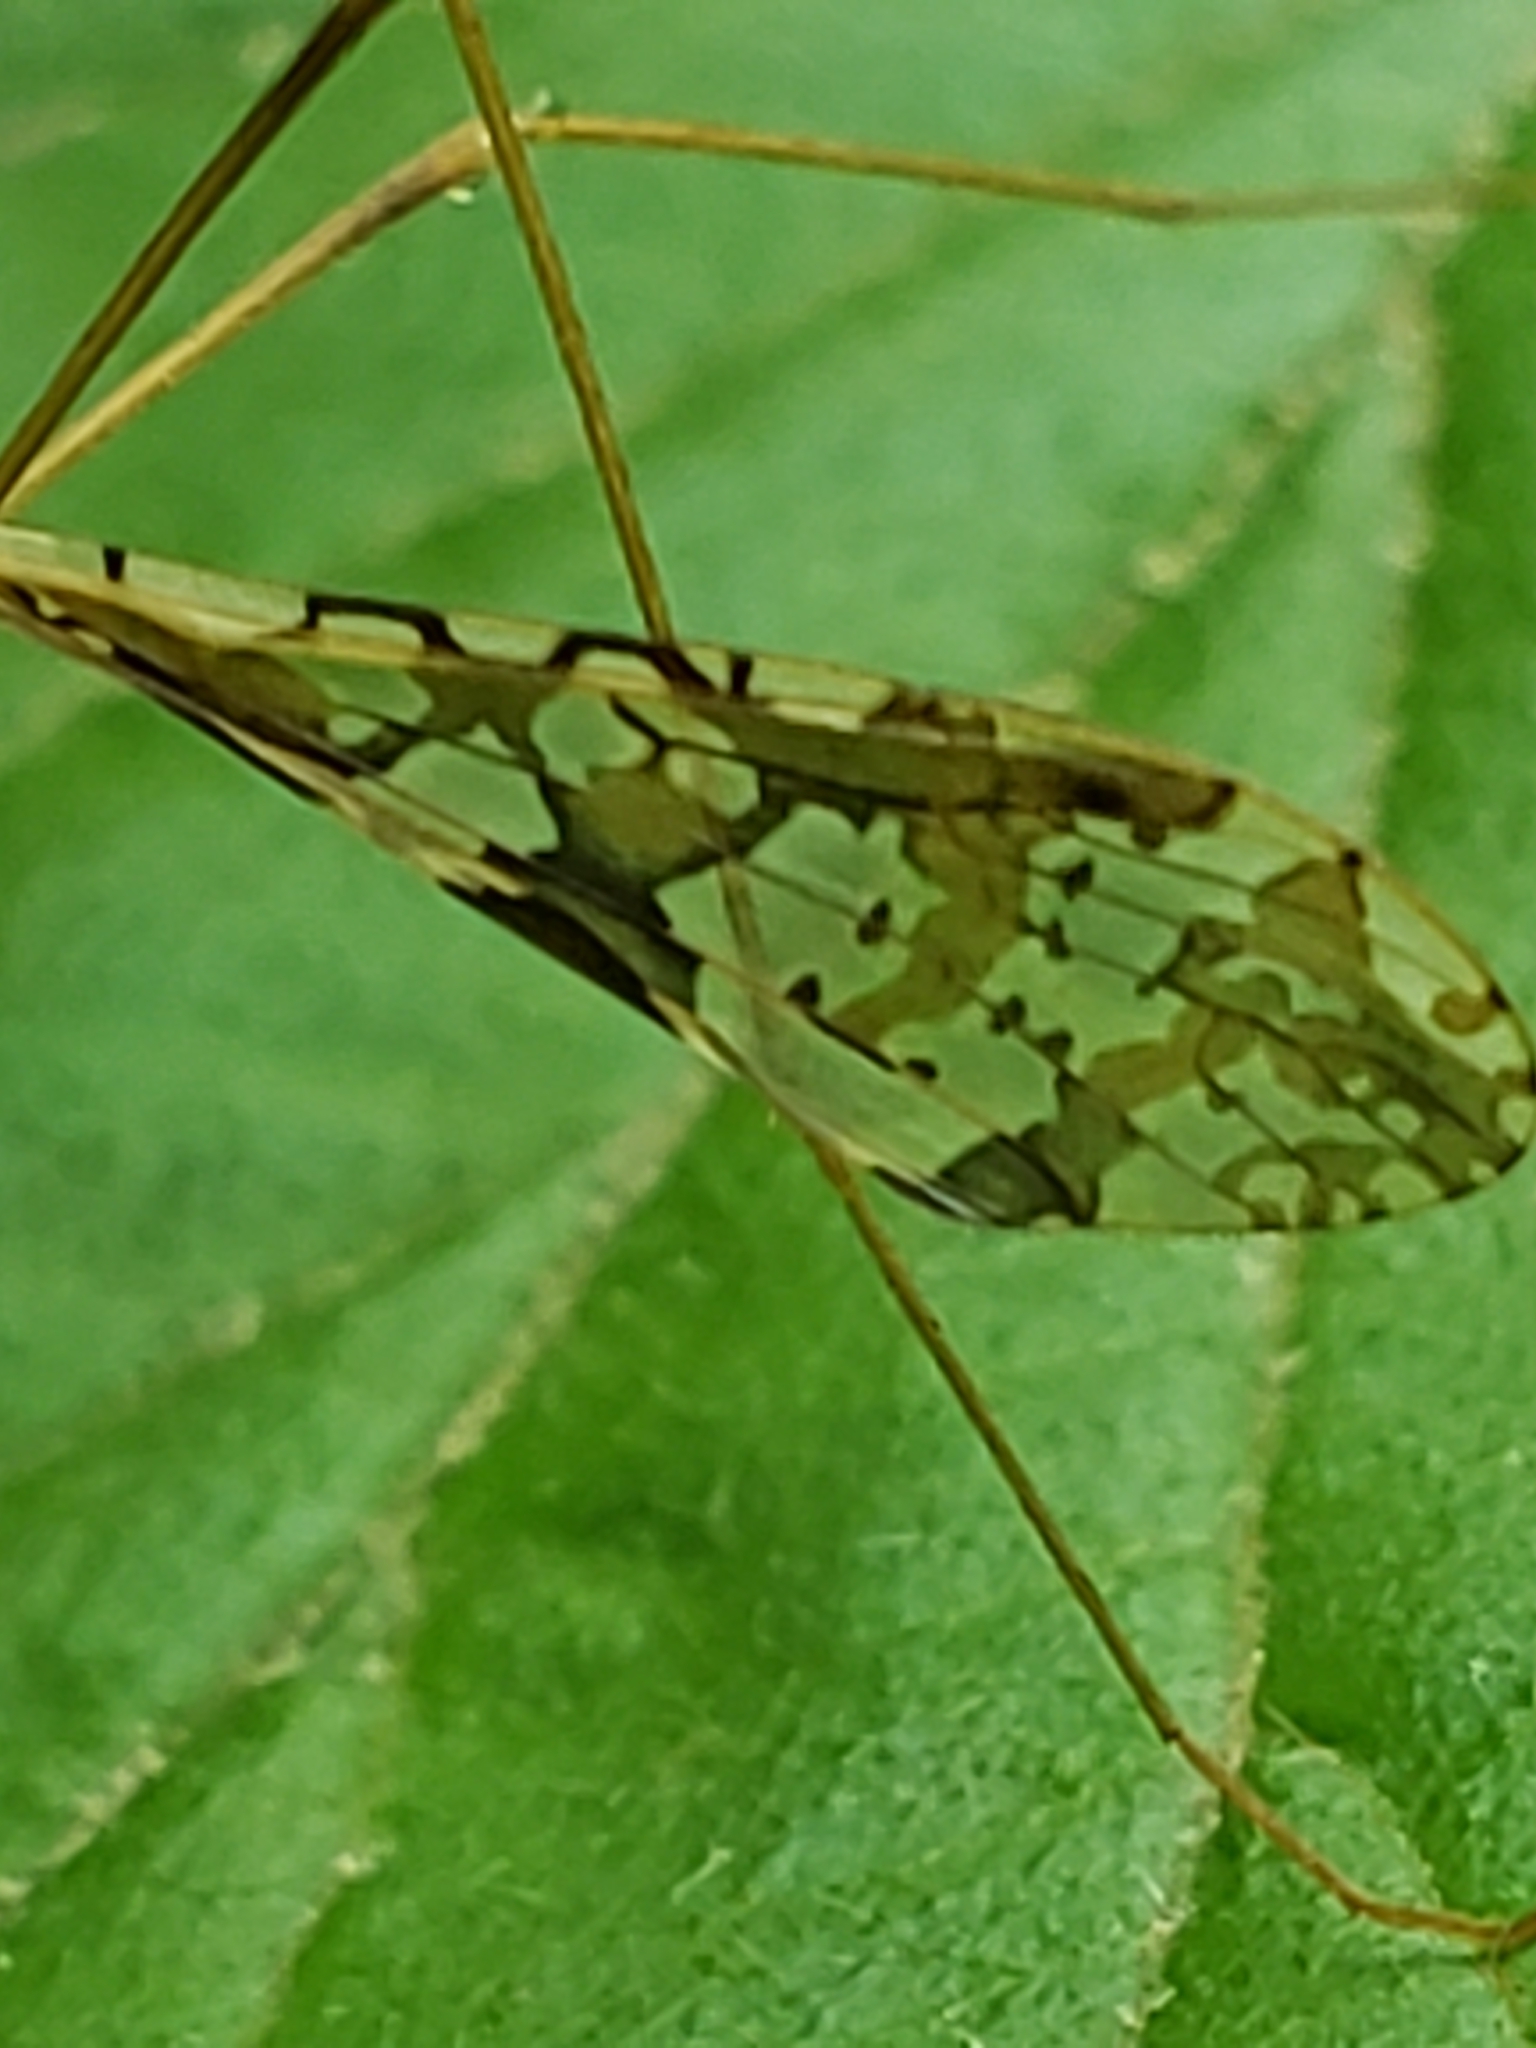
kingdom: Animalia
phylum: Arthropoda
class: Insecta
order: Diptera
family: Limoniidae
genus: Epiphragma
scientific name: Epiphragma solatrix
